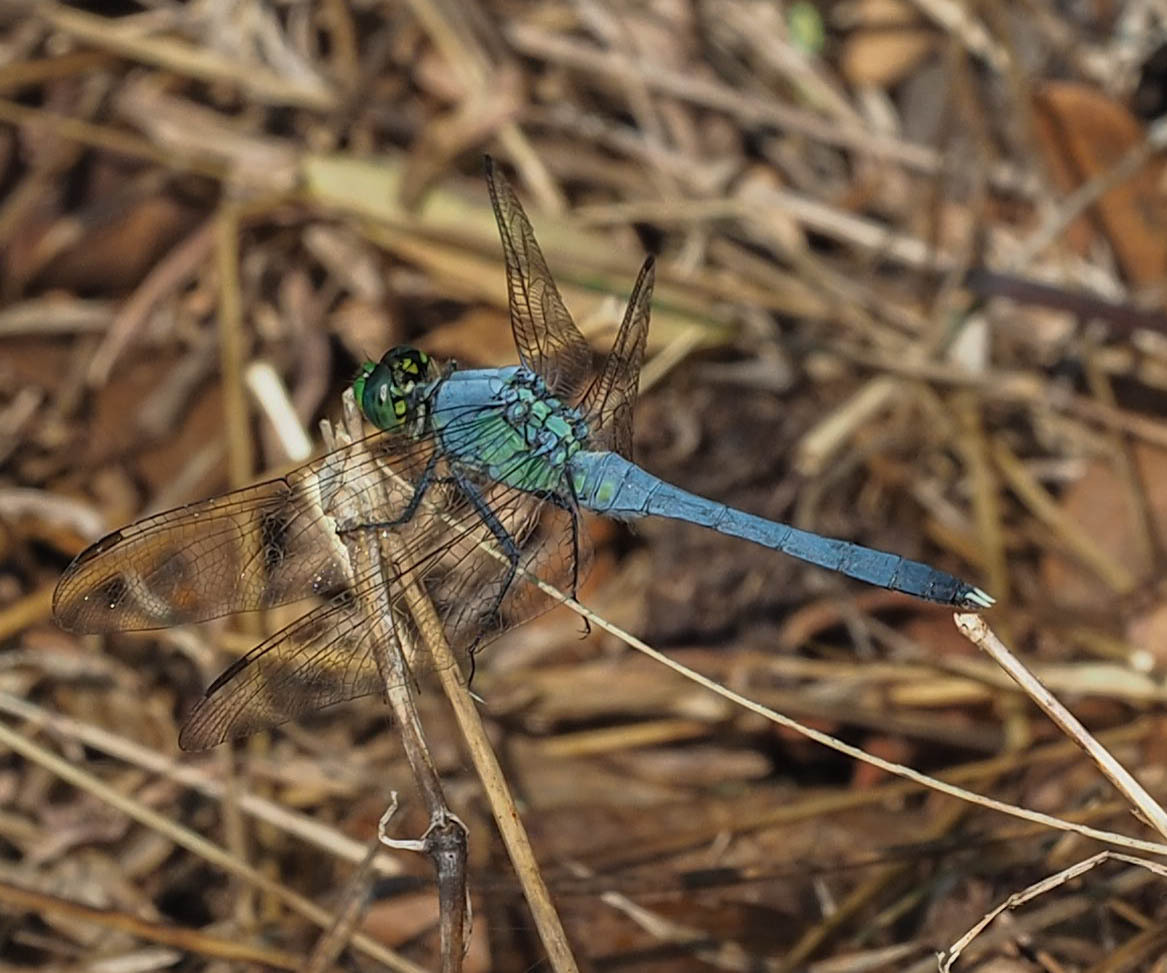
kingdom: Animalia
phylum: Arthropoda
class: Insecta
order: Odonata
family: Libellulidae
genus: Erythemis
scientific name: Erythemis simplicicollis
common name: Eastern pondhawk
